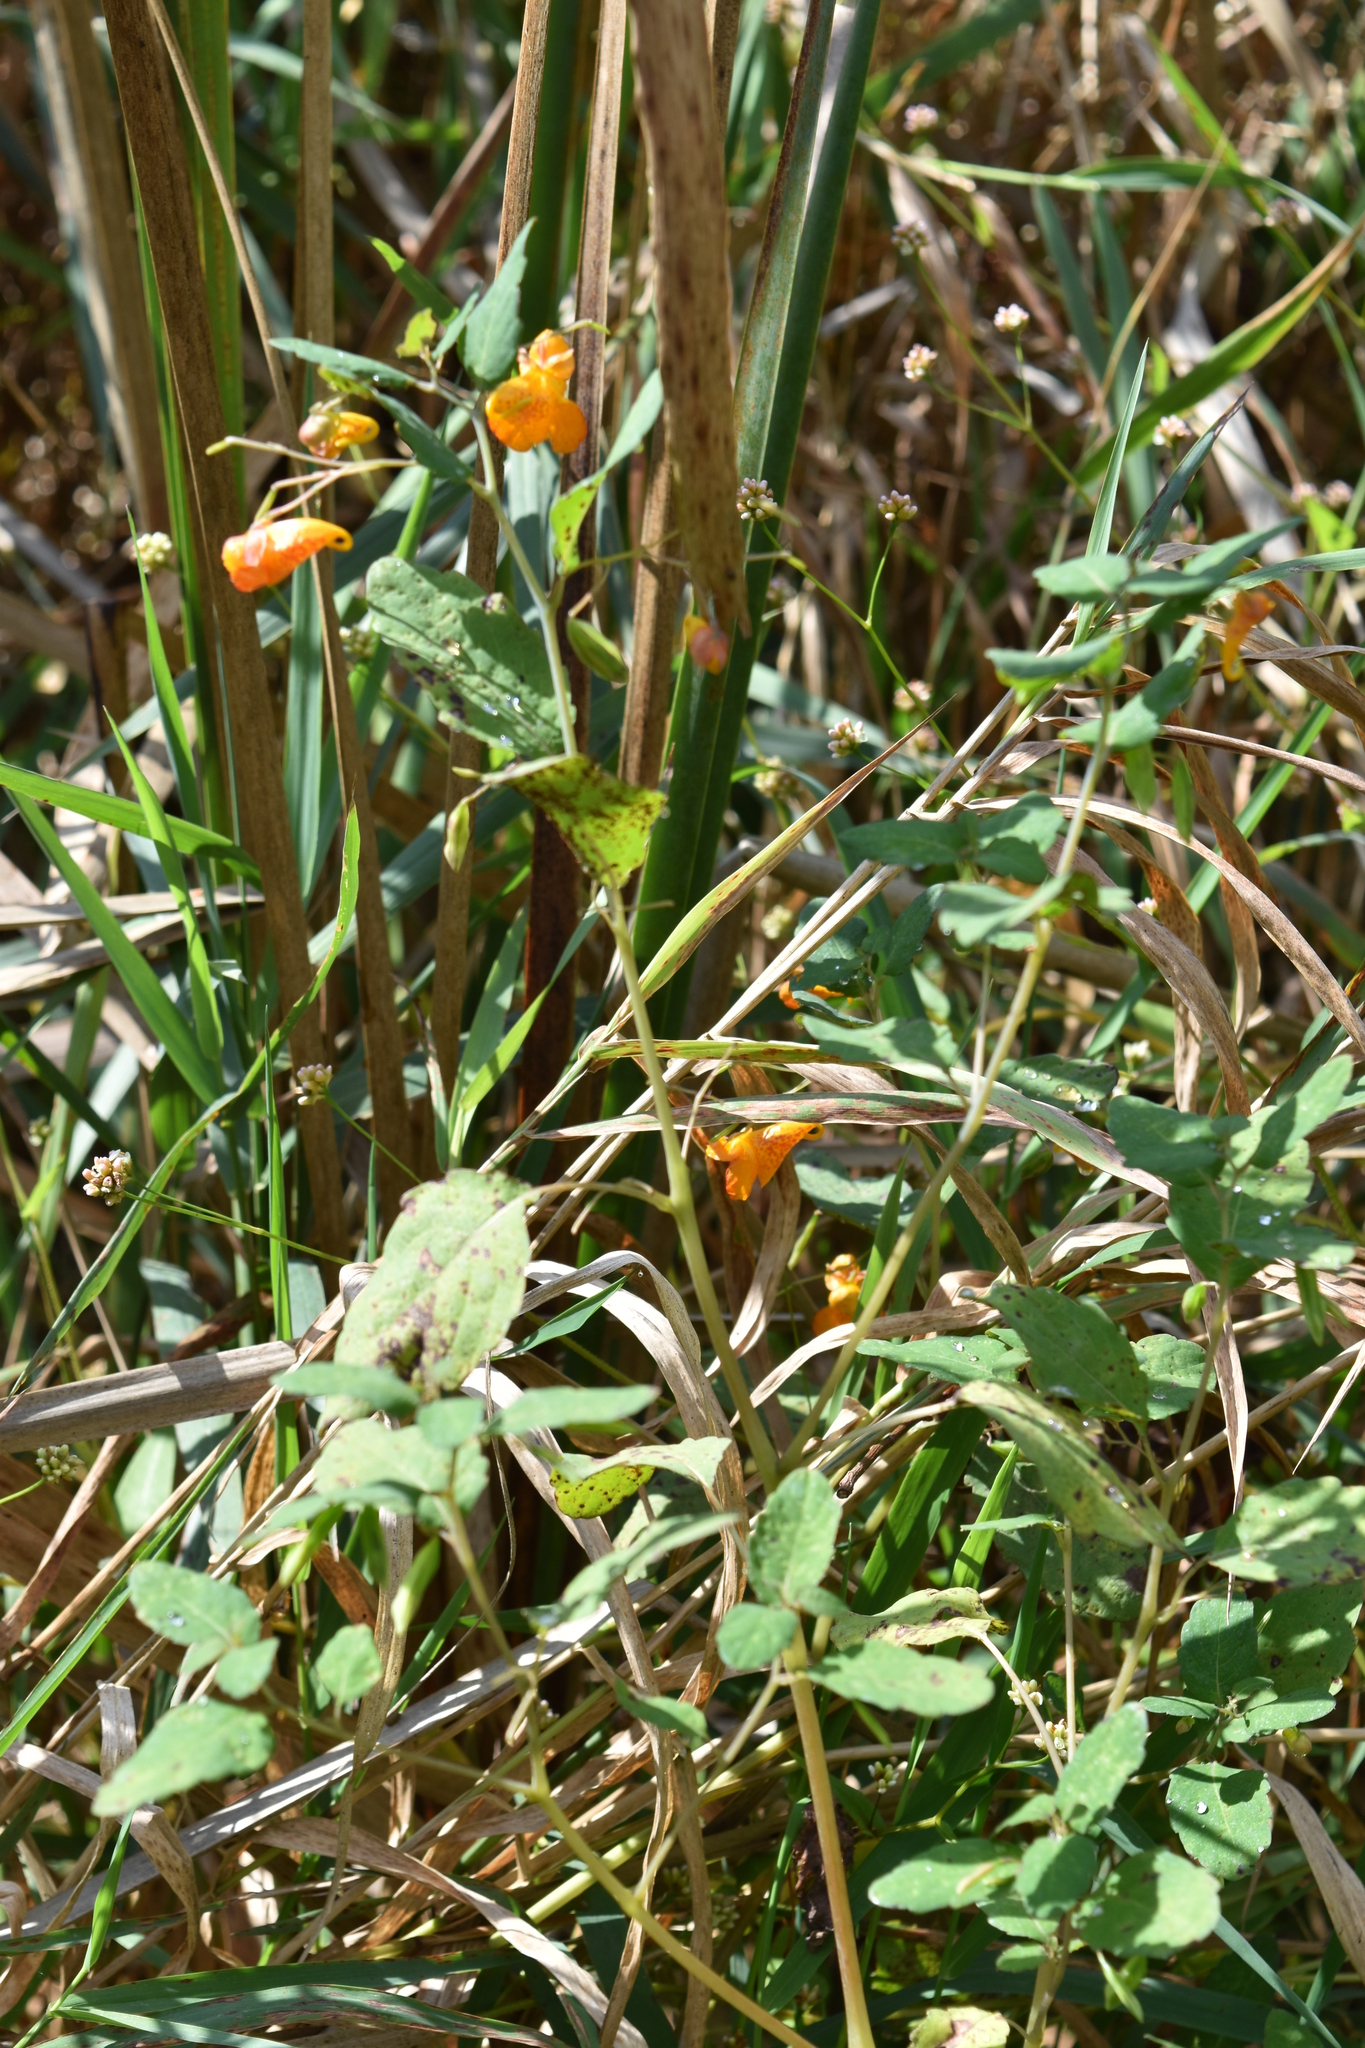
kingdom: Plantae
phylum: Tracheophyta
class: Magnoliopsida
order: Ericales
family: Balsaminaceae
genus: Impatiens
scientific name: Impatiens capensis
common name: Orange balsam
